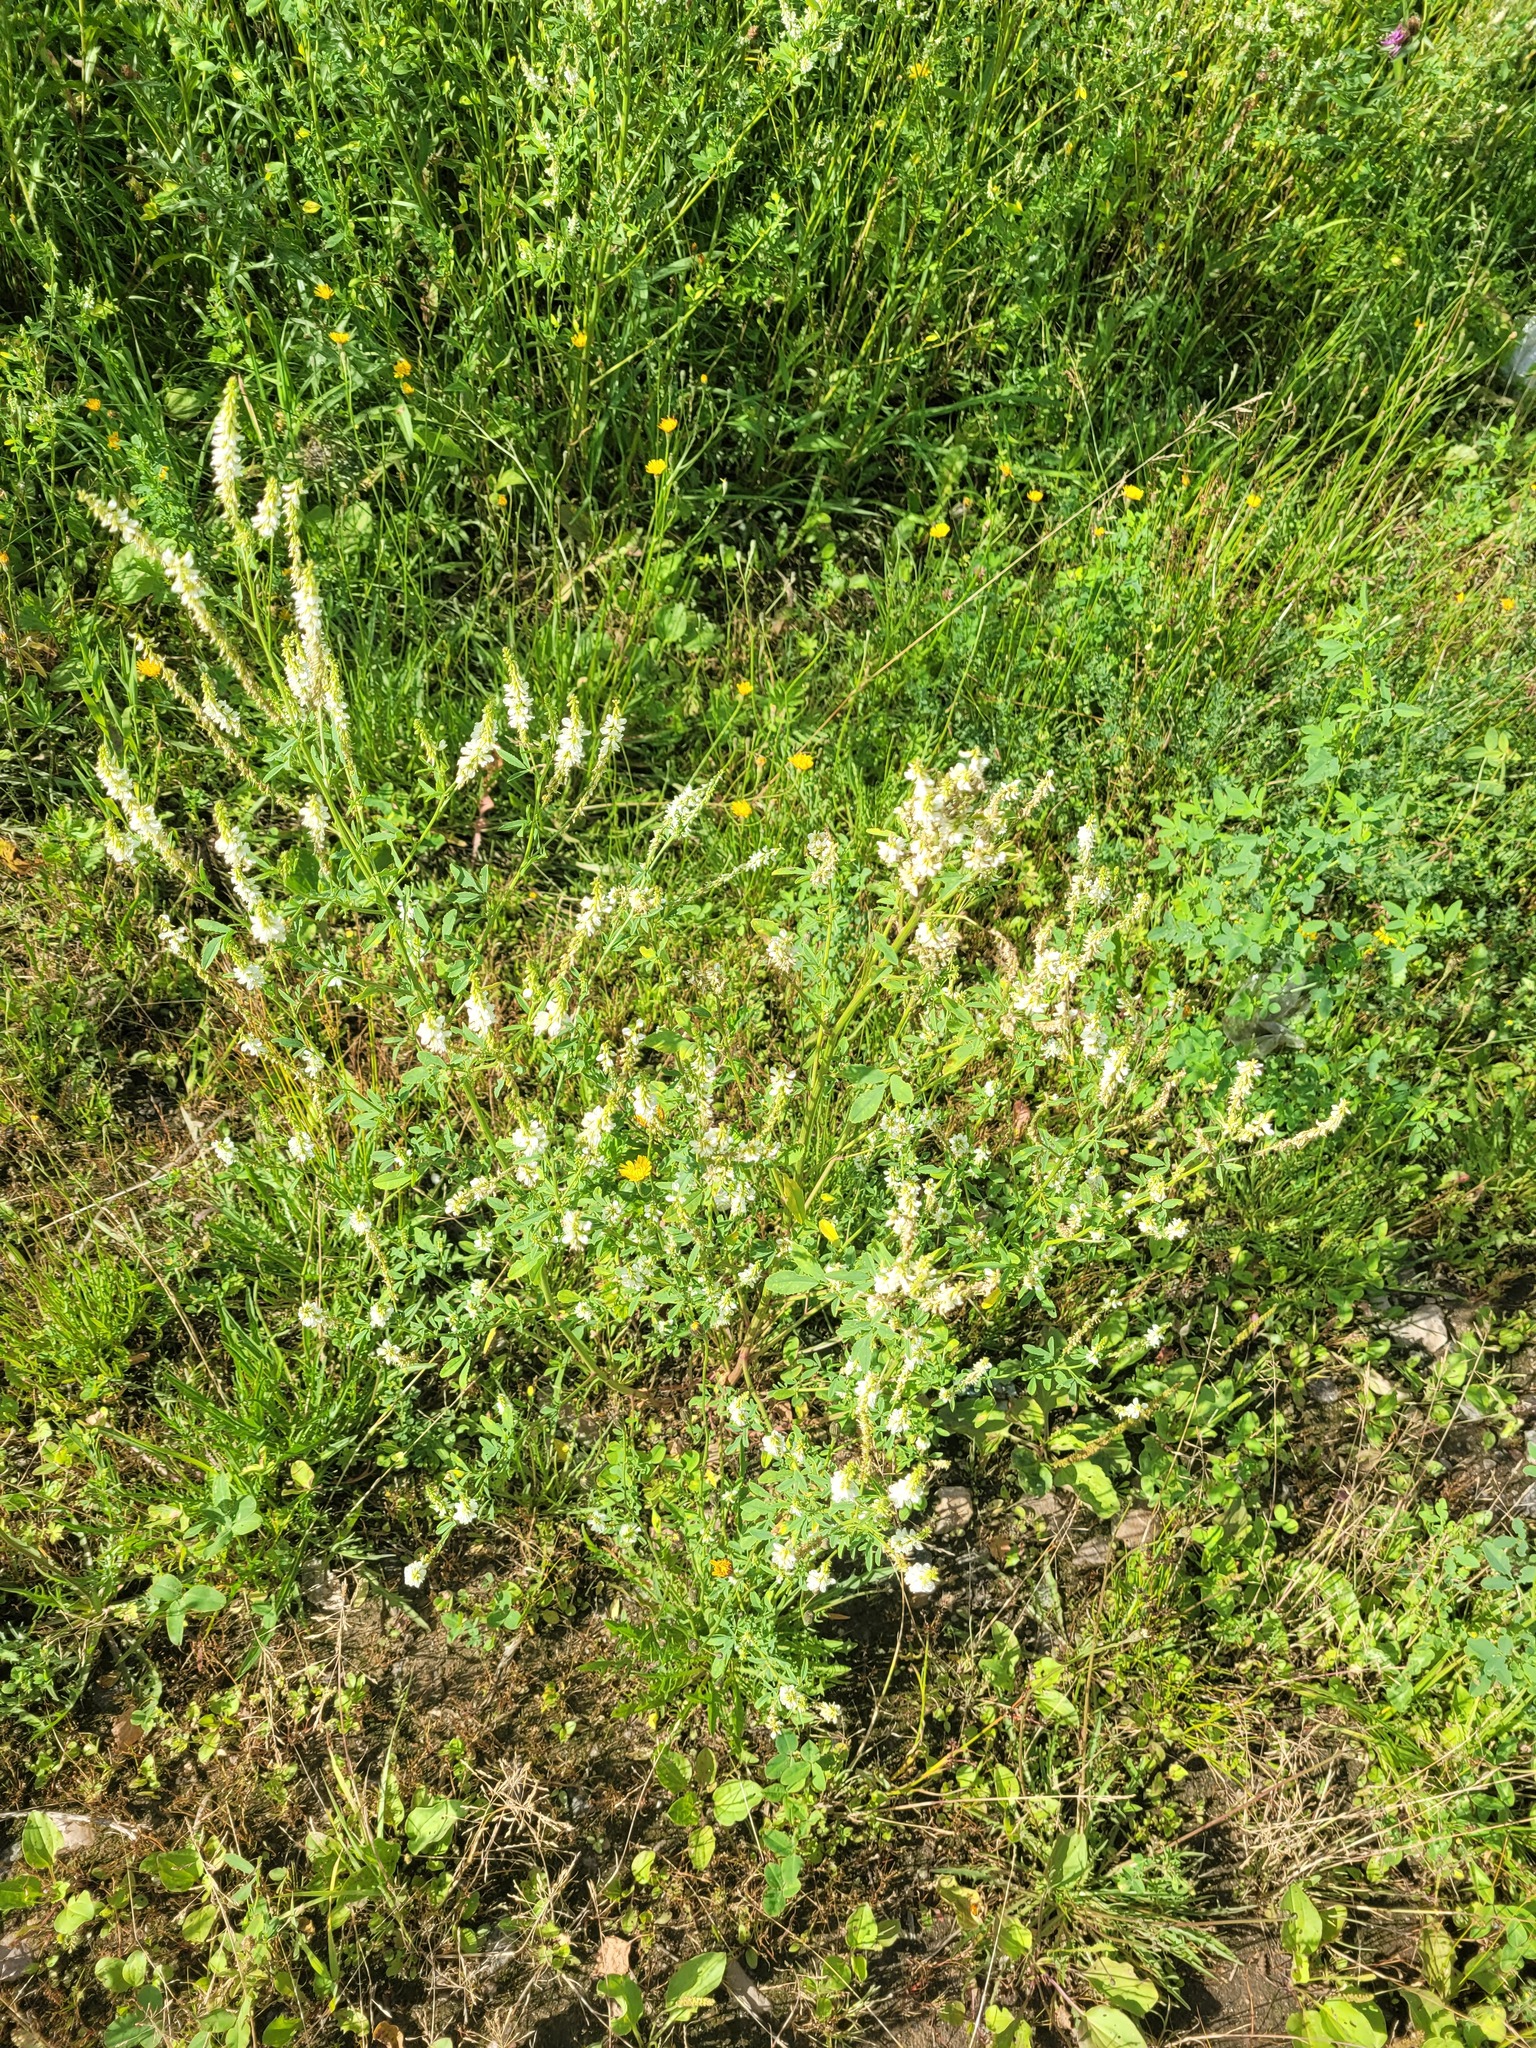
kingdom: Plantae
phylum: Tracheophyta
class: Magnoliopsida
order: Fabales
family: Fabaceae
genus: Melilotus
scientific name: Melilotus albus
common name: White melilot
